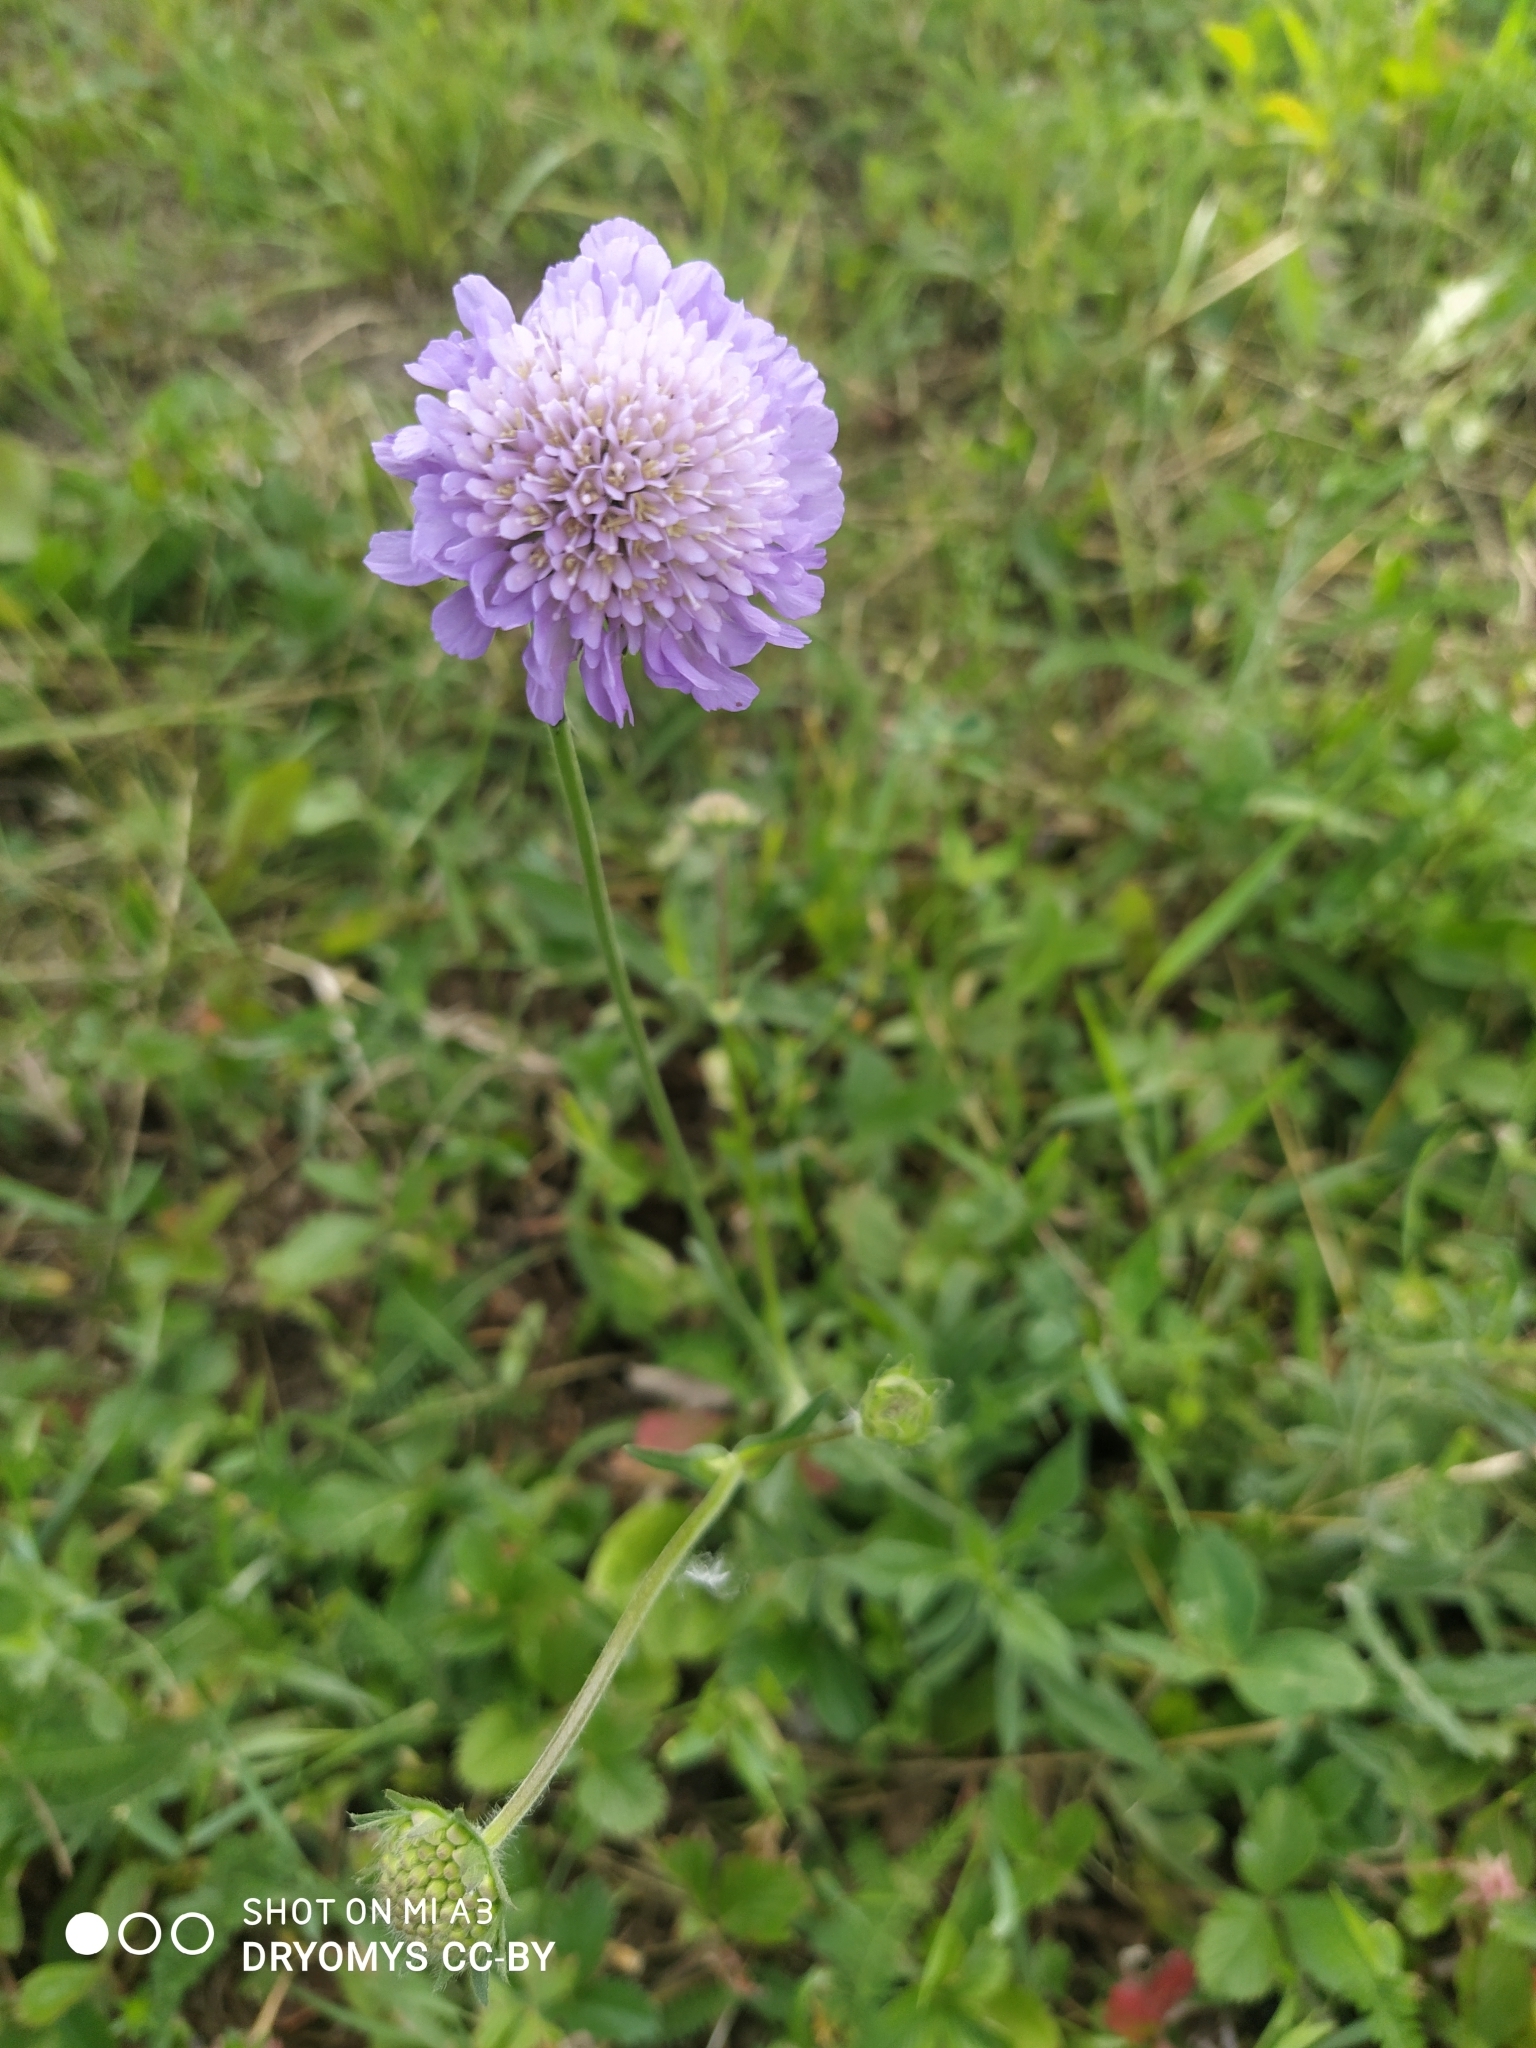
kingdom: Plantae
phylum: Tracheophyta
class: Magnoliopsida
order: Dipsacales
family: Caprifoliaceae
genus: Knautia
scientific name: Knautia arvensis
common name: Field scabiosa
